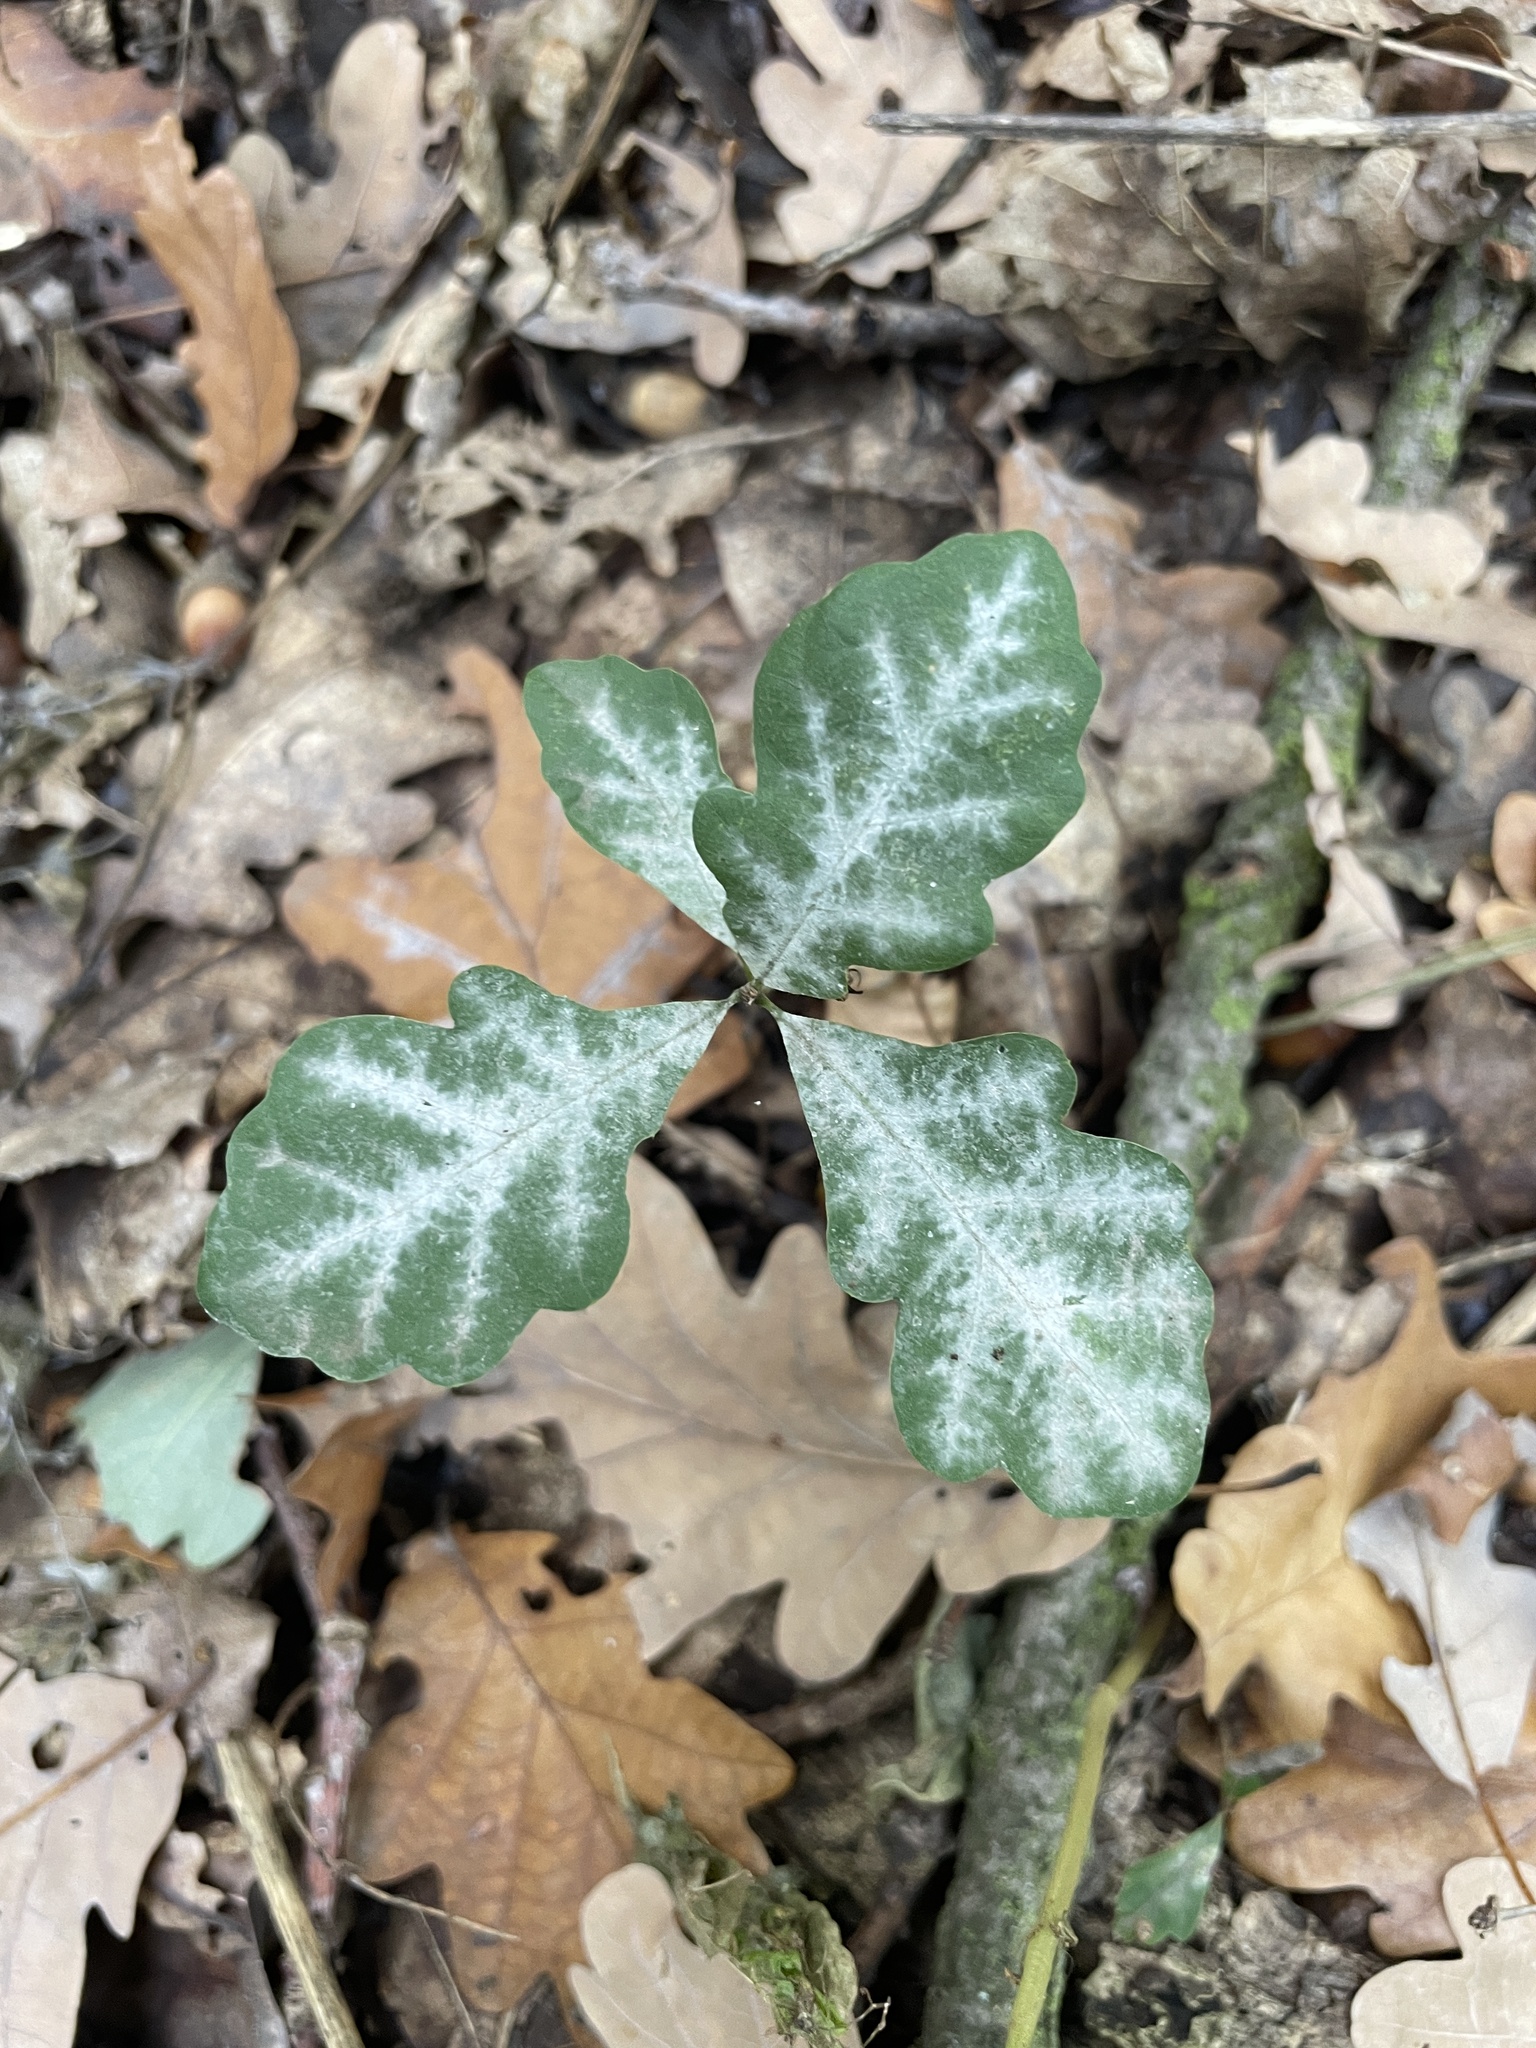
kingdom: Fungi
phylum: Ascomycota
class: Leotiomycetes
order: Helotiales
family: Erysiphaceae
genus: Erysiphe
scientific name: Erysiphe
